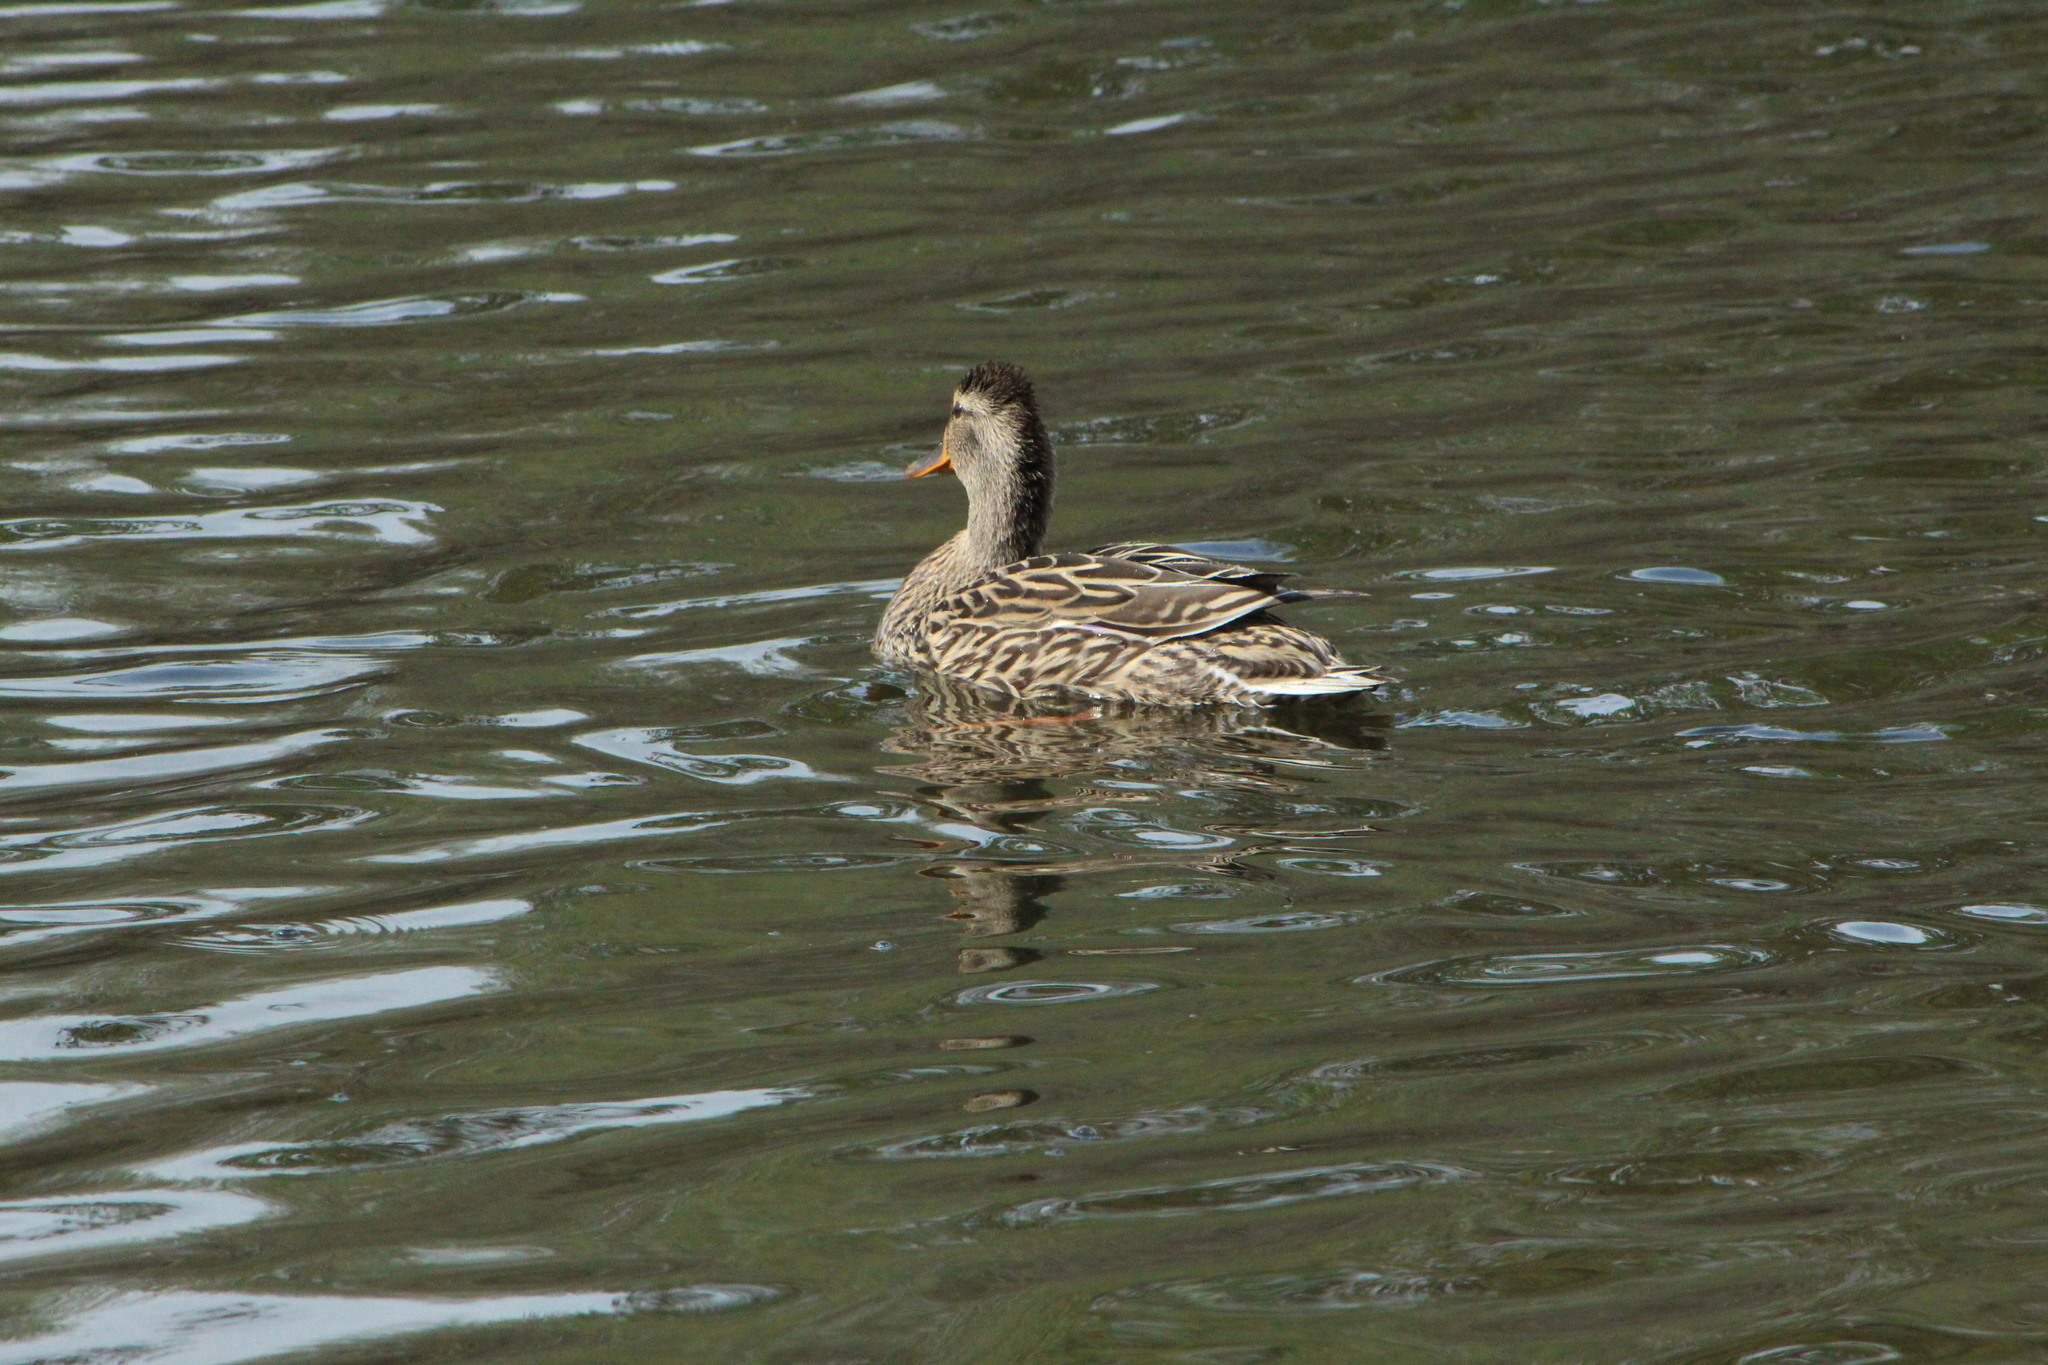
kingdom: Animalia
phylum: Chordata
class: Aves
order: Anseriformes
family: Anatidae
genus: Anas
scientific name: Anas platyrhynchos
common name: Mallard
